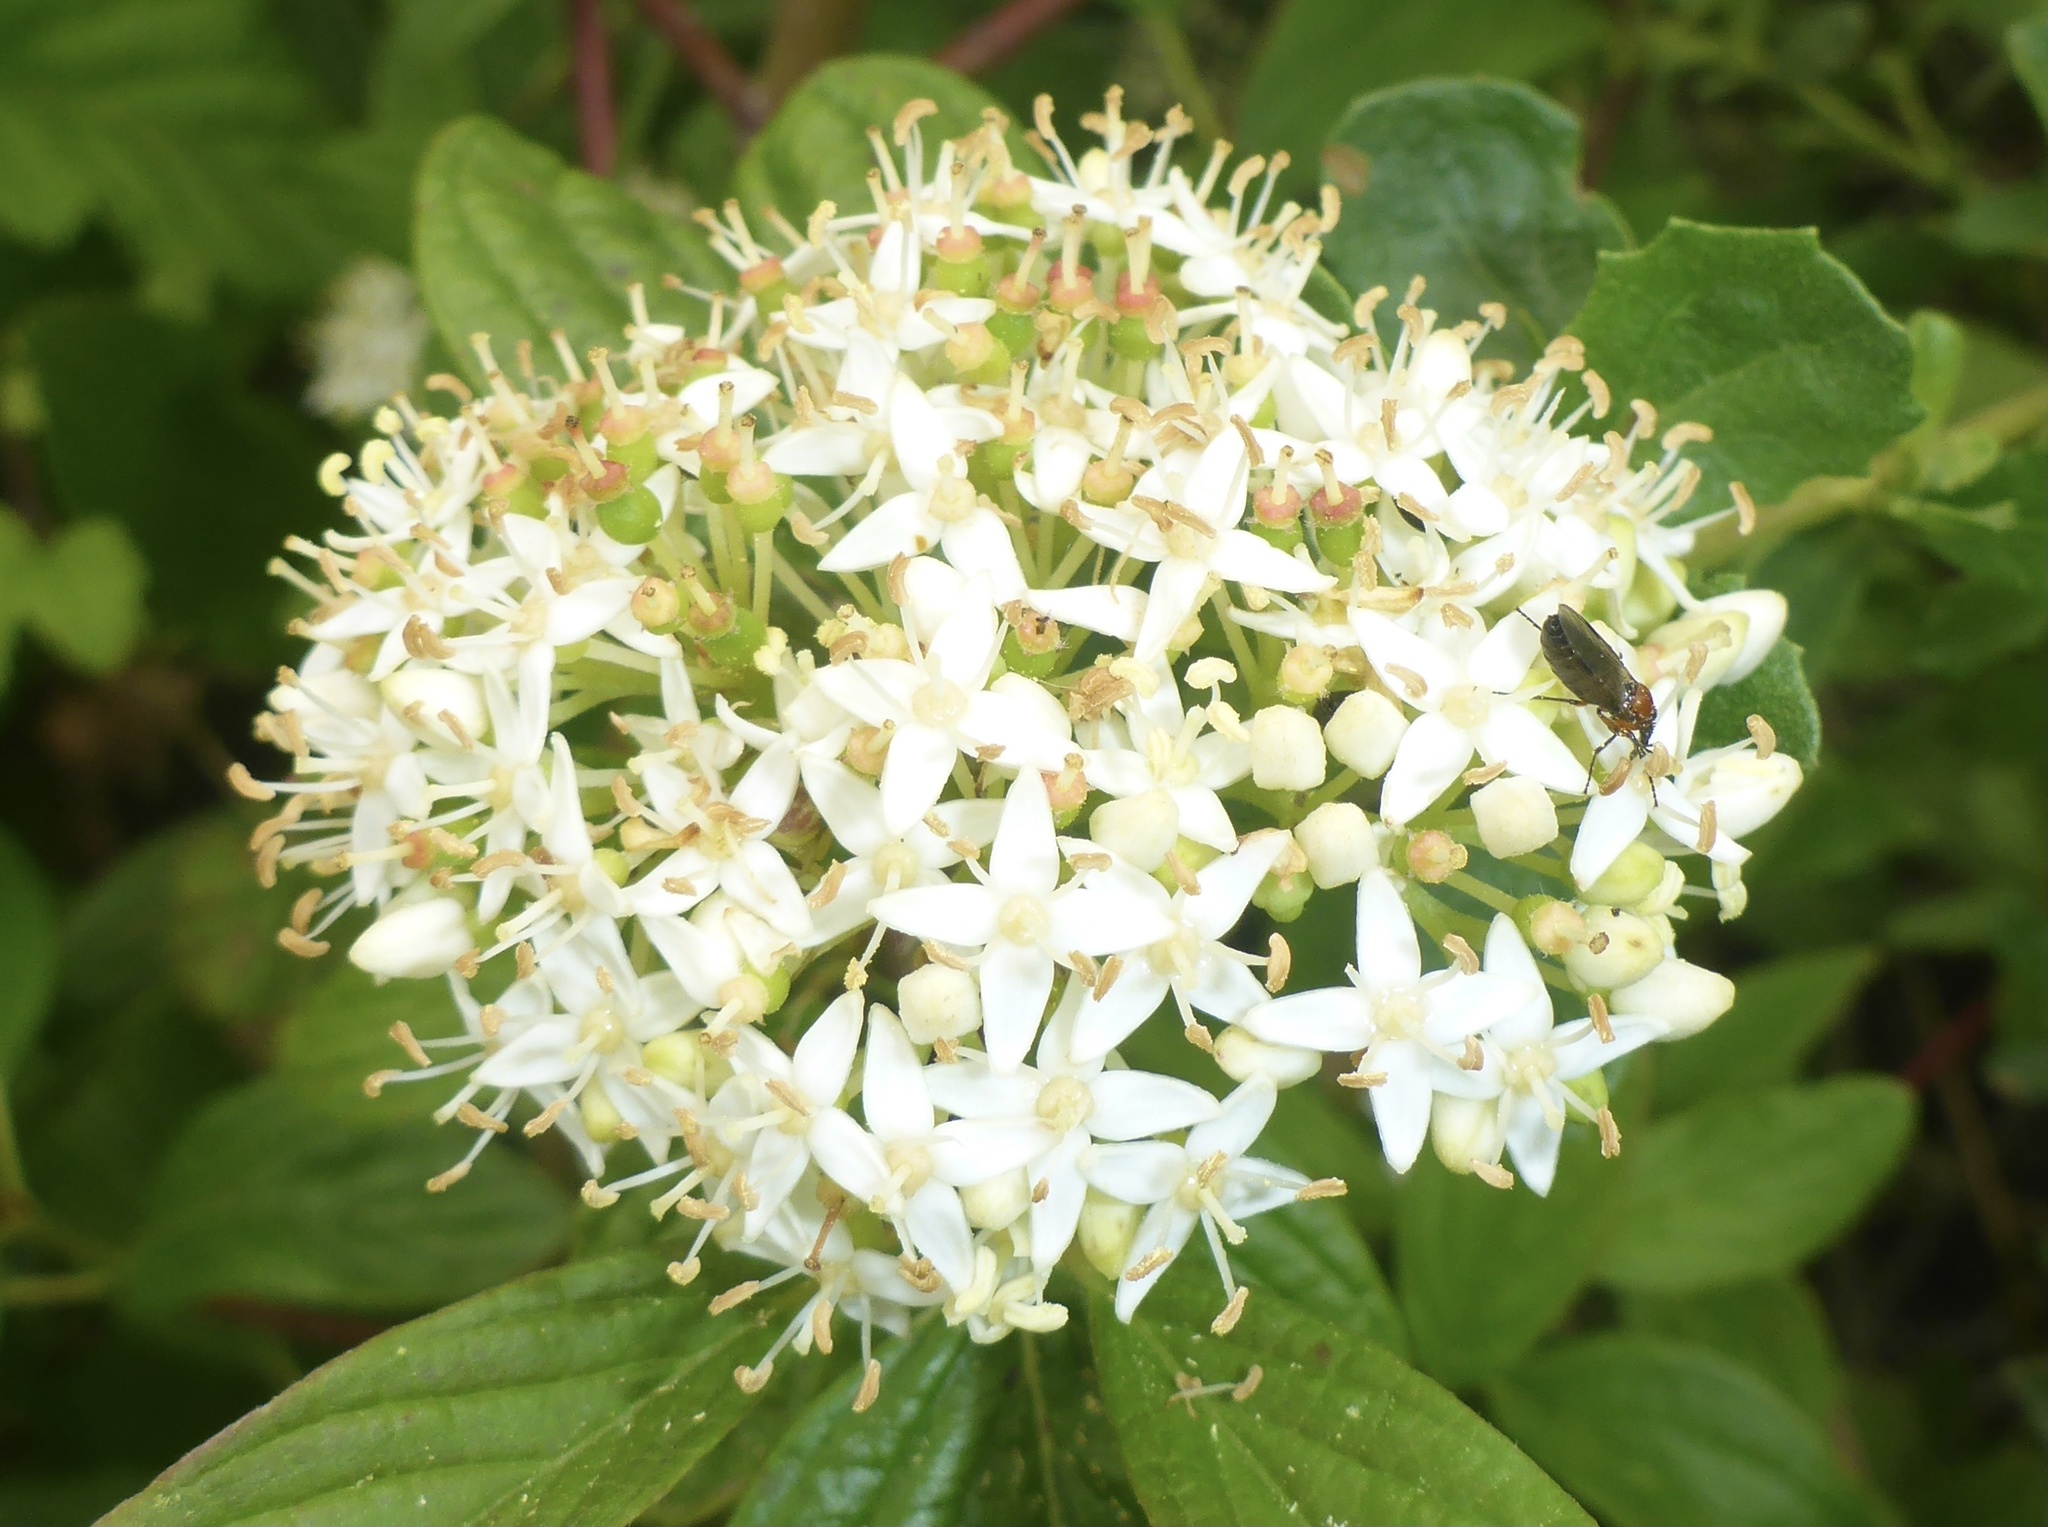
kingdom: Plantae
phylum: Tracheophyta
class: Magnoliopsida
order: Cornales
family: Cornaceae
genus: Cornus
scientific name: Cornus sericea
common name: Red-osier dogwood
